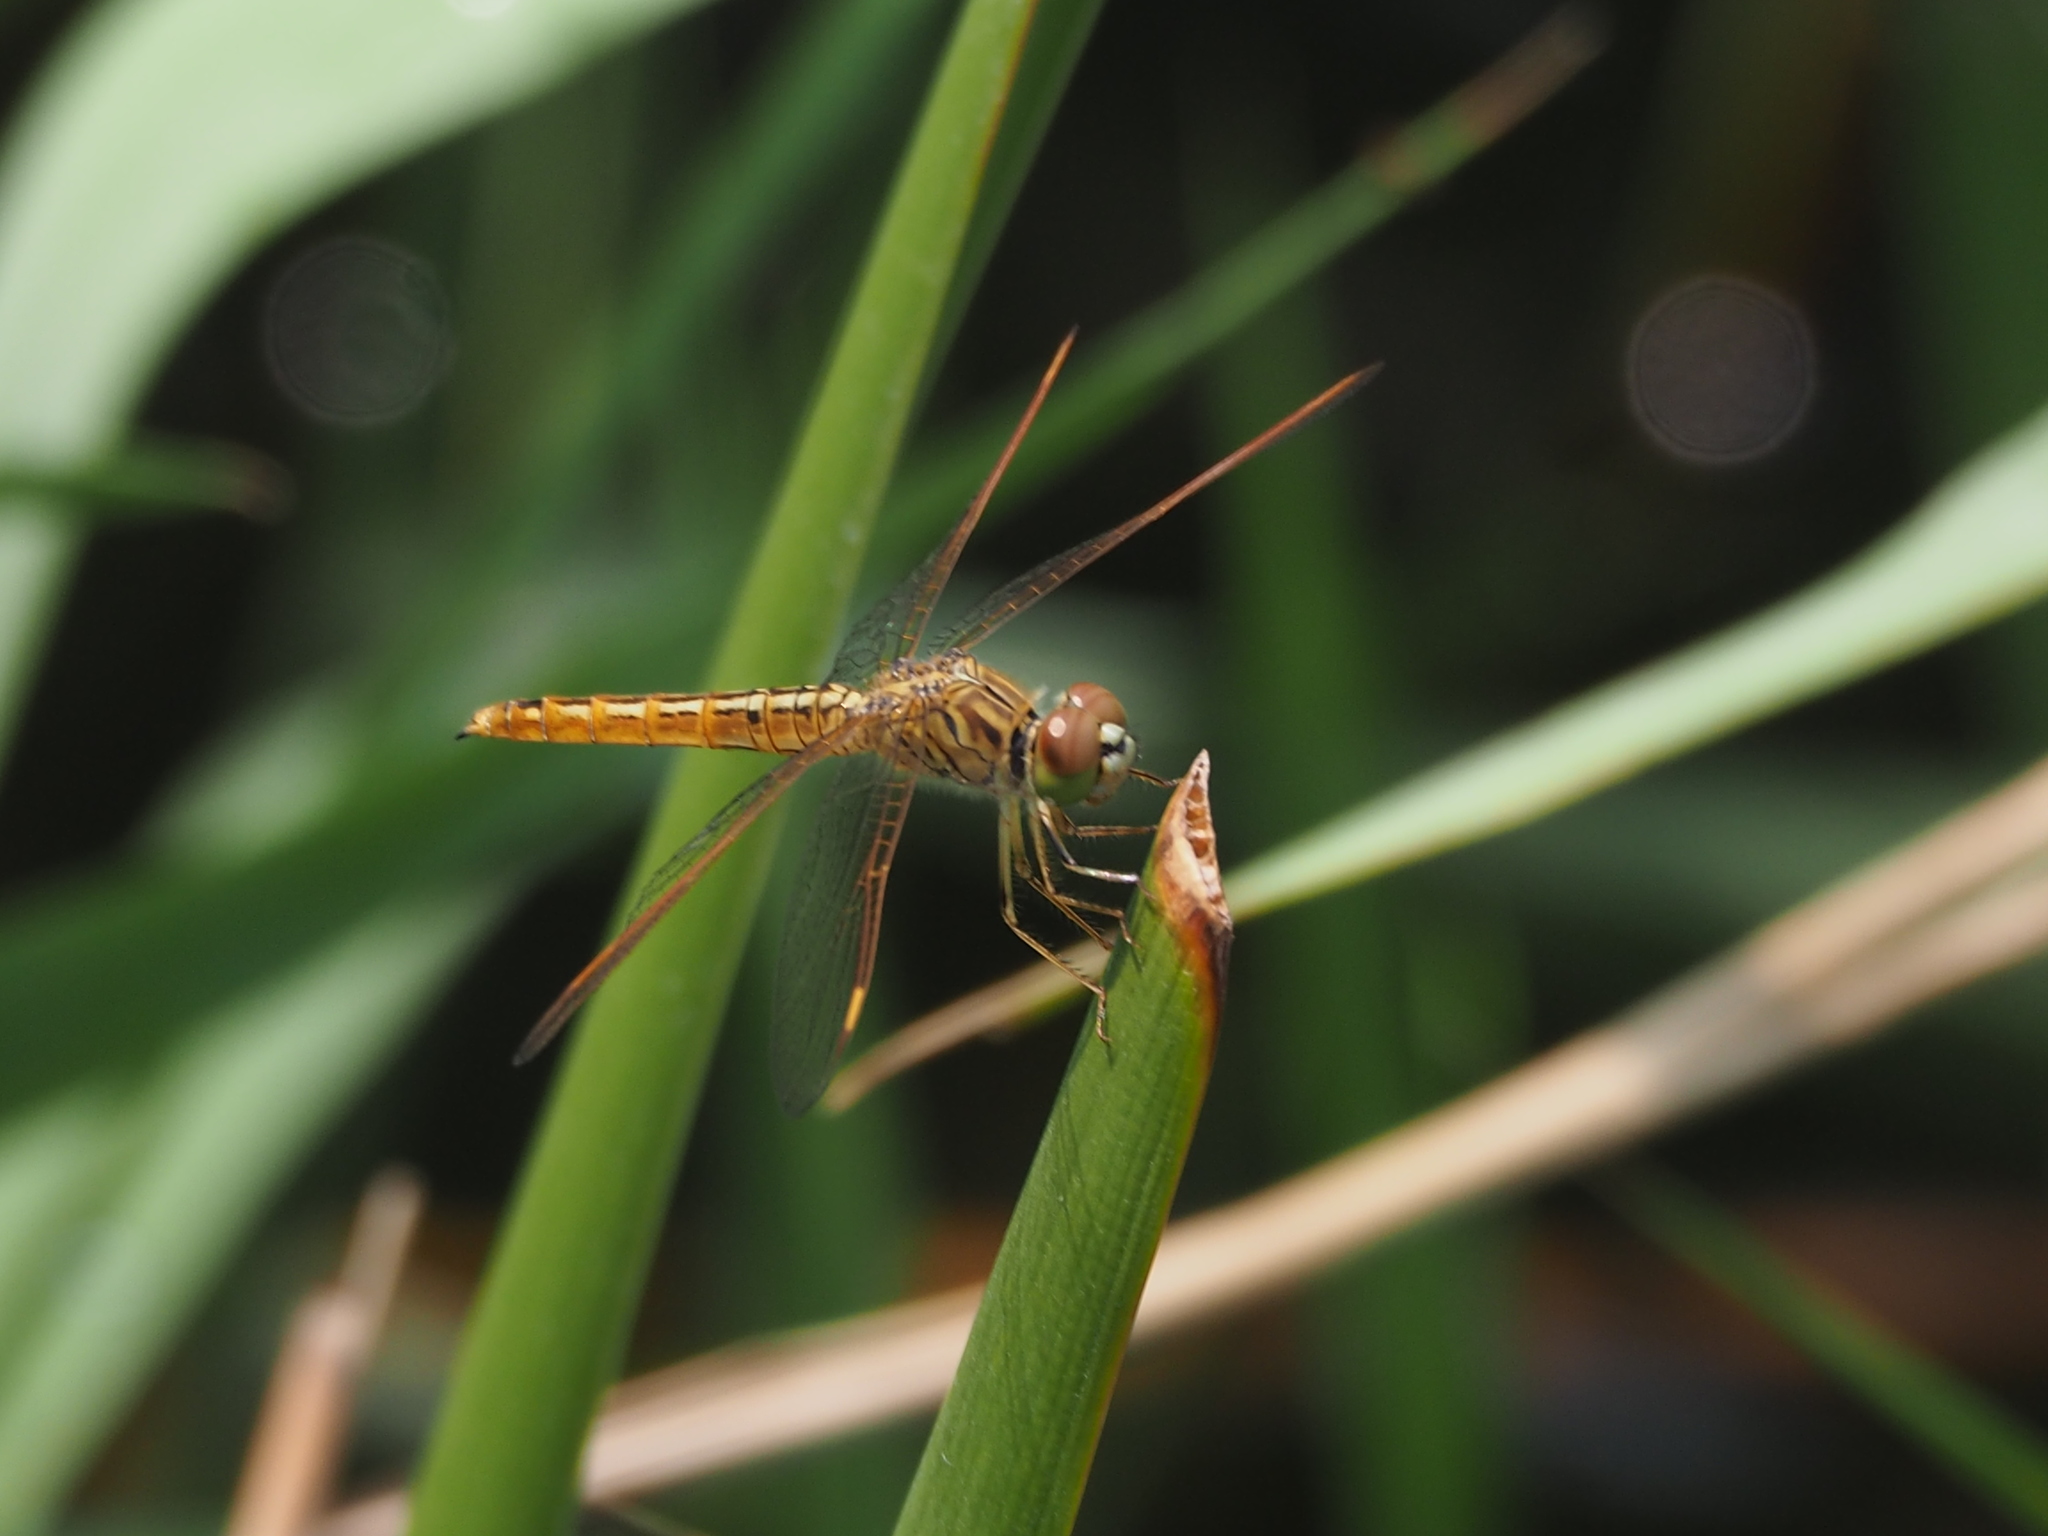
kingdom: Animalia
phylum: Arthropoda
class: Insecta
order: Odonata
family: Libellulidae
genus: Brachythemis
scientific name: Brachythemis contaminata
